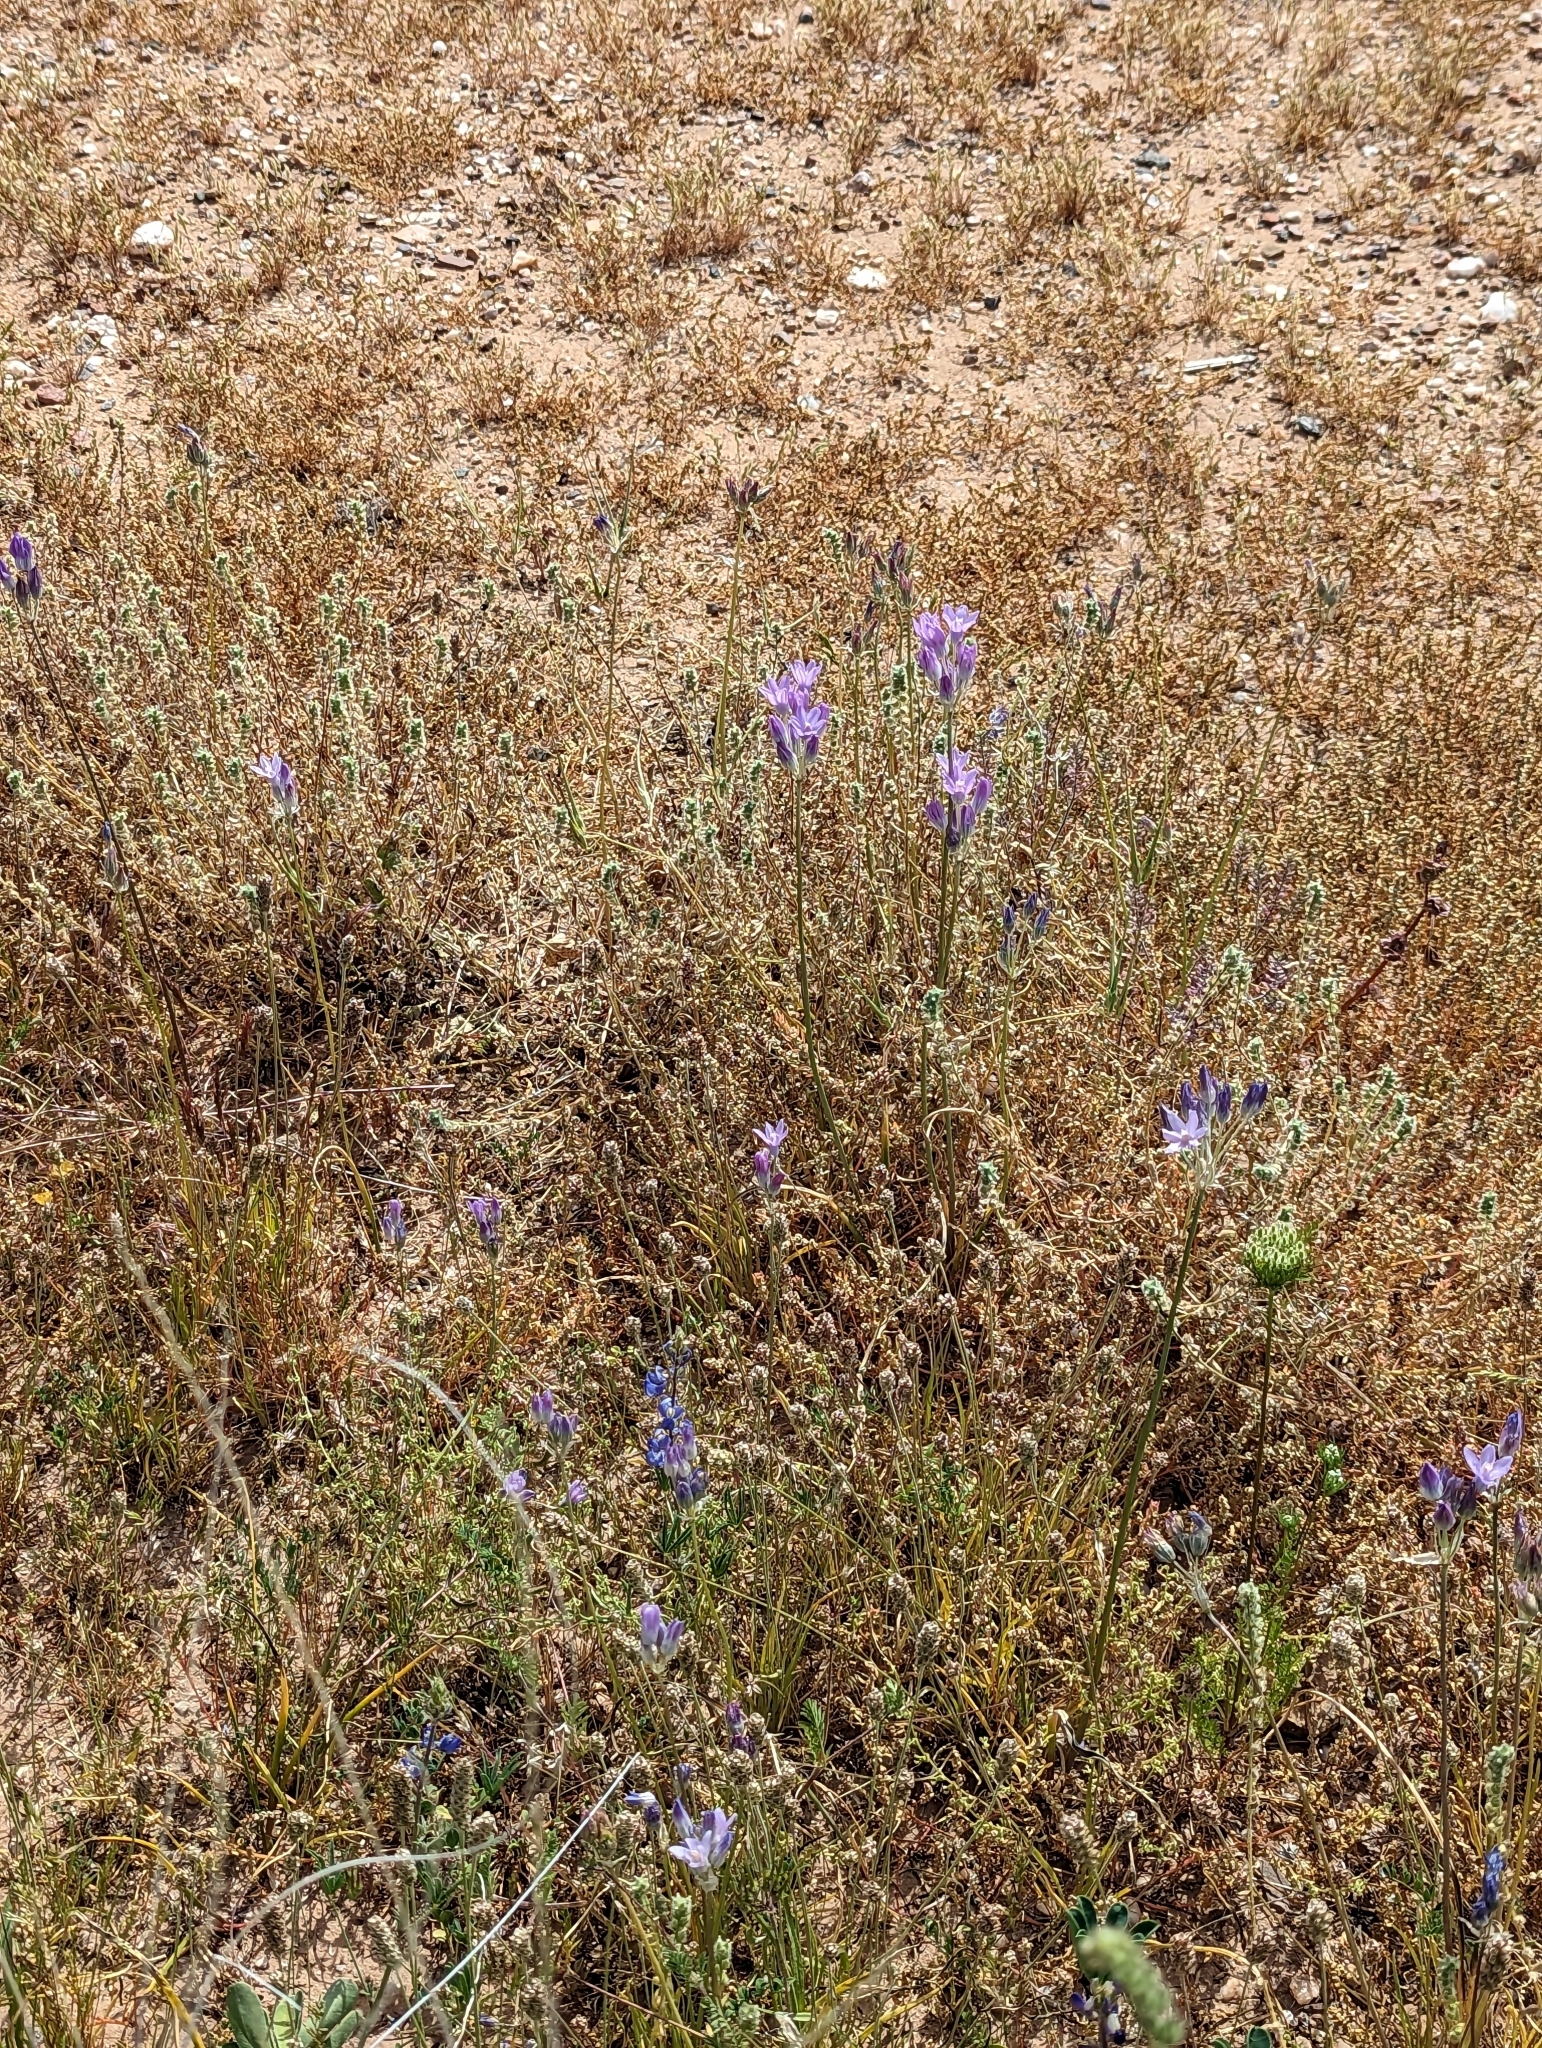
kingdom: Plantae
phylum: Tracheophyta
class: Liliopsida
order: Asparagales
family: Asparagaceae
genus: Dipterostemon
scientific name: Dipterostemon capitatus
